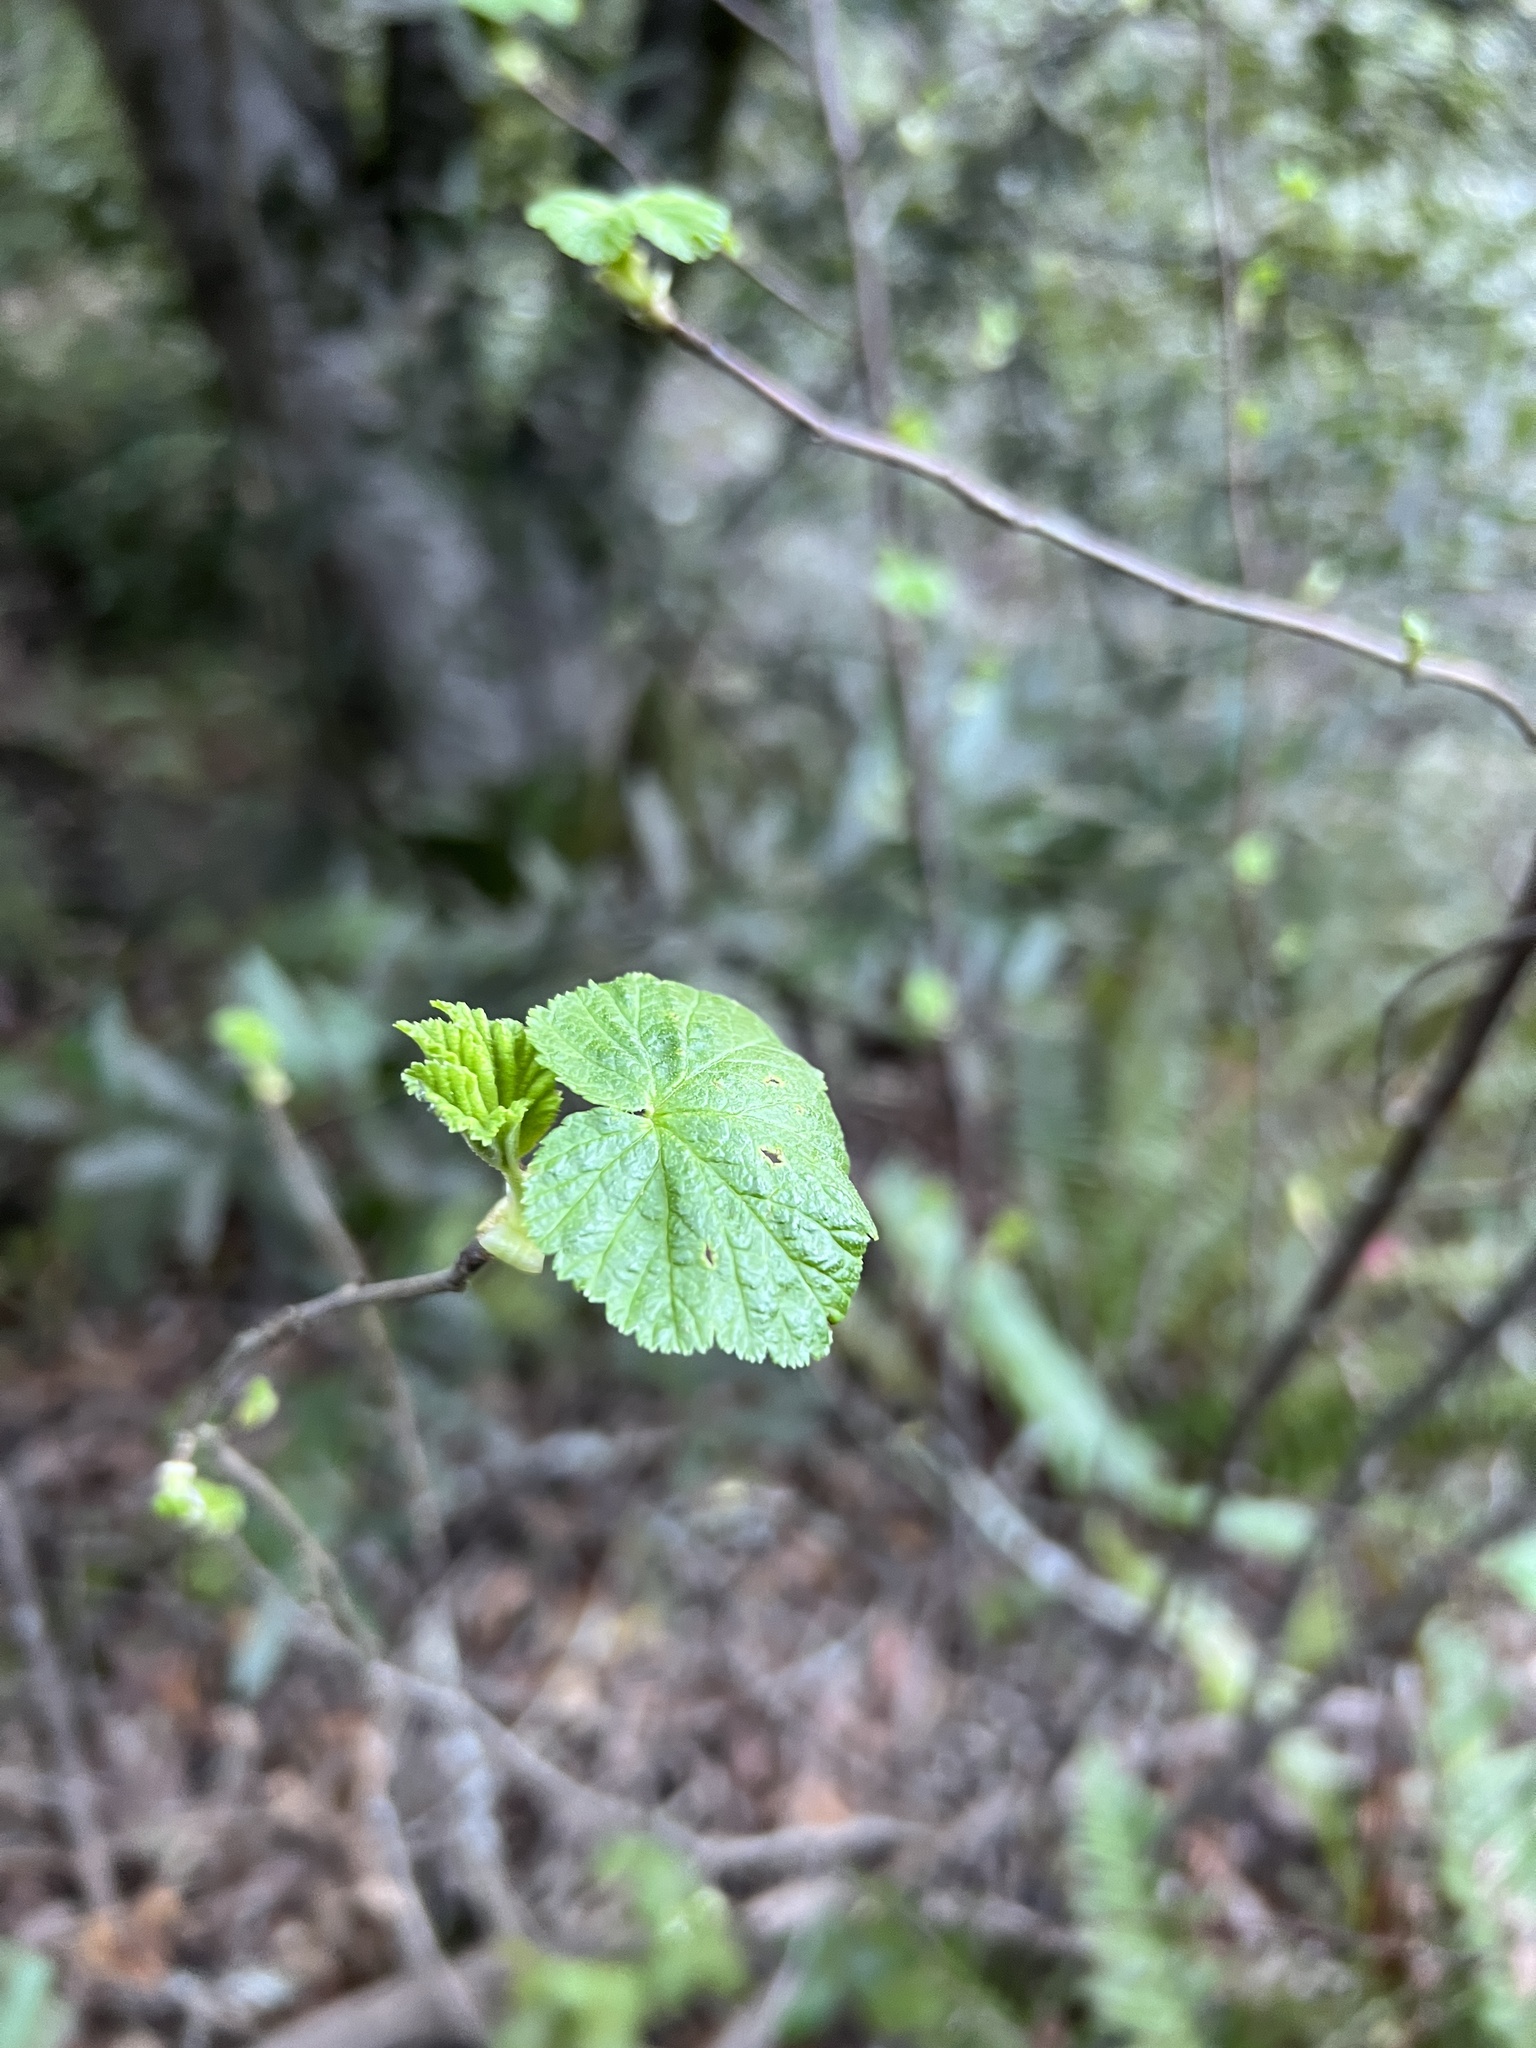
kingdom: Plantae
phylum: Tracheophyta
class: Magnoliopsida
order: Saxifragales
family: Grossulariaceae
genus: Ribes
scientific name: Ribes sanguineum
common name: Flowering currant
